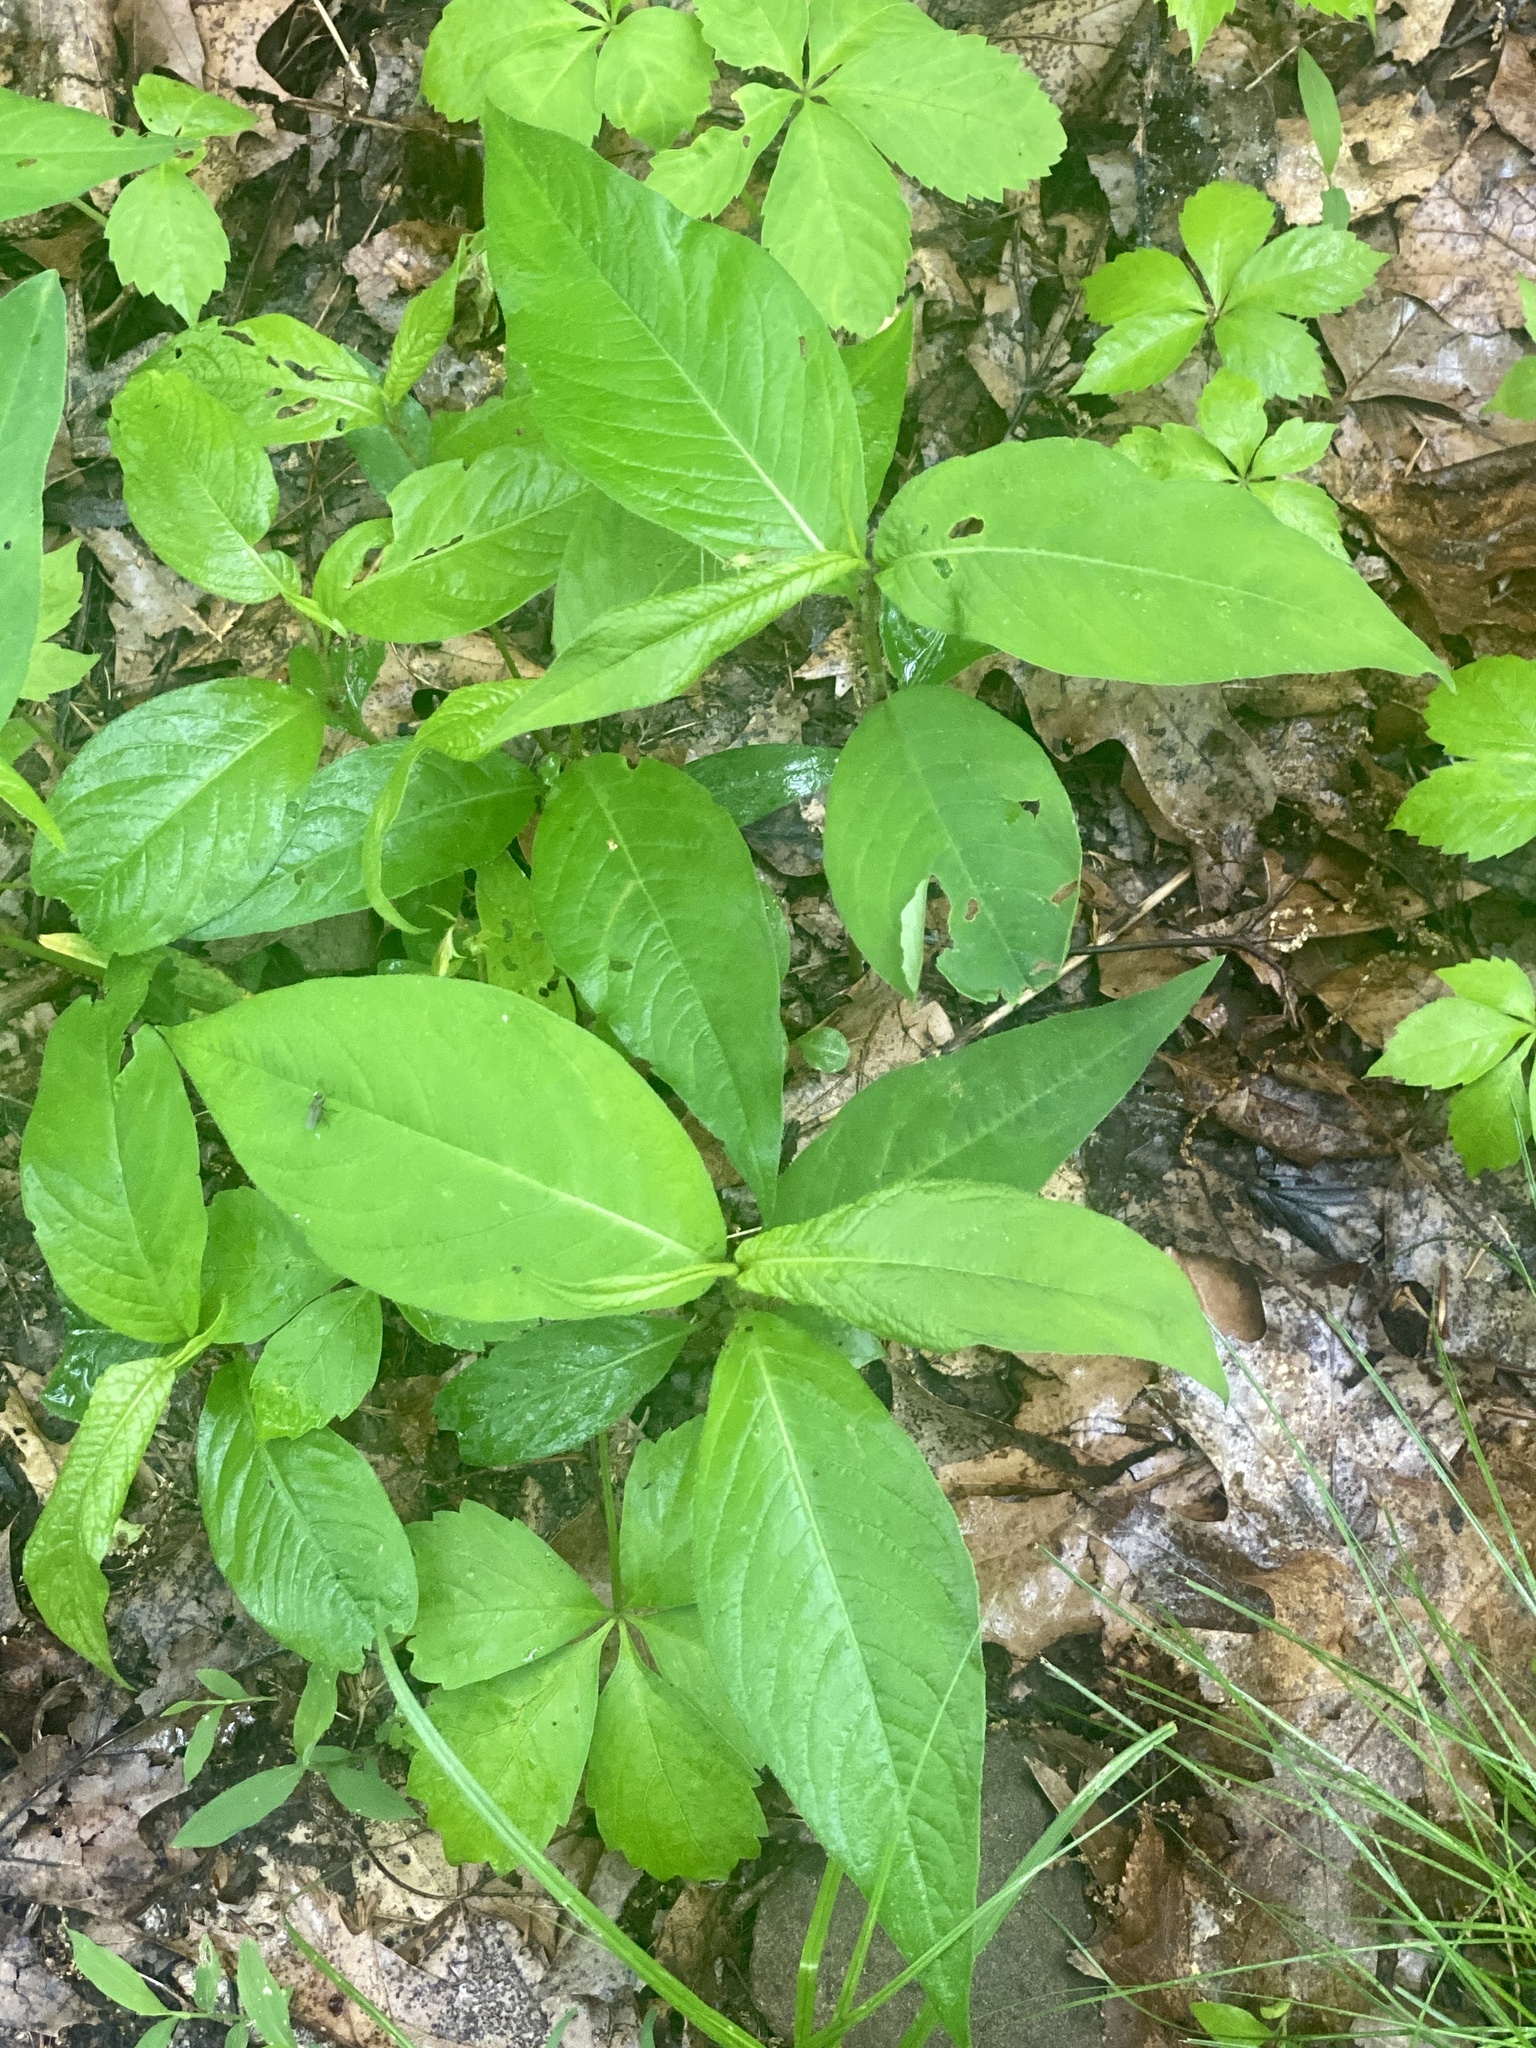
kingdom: Plantae
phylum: Tracheophyta
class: Magnoliopsida
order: Caryophyllales
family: Polygonaceae
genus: Persicaria
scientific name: Persicaria virginiana
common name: Jumpseed
